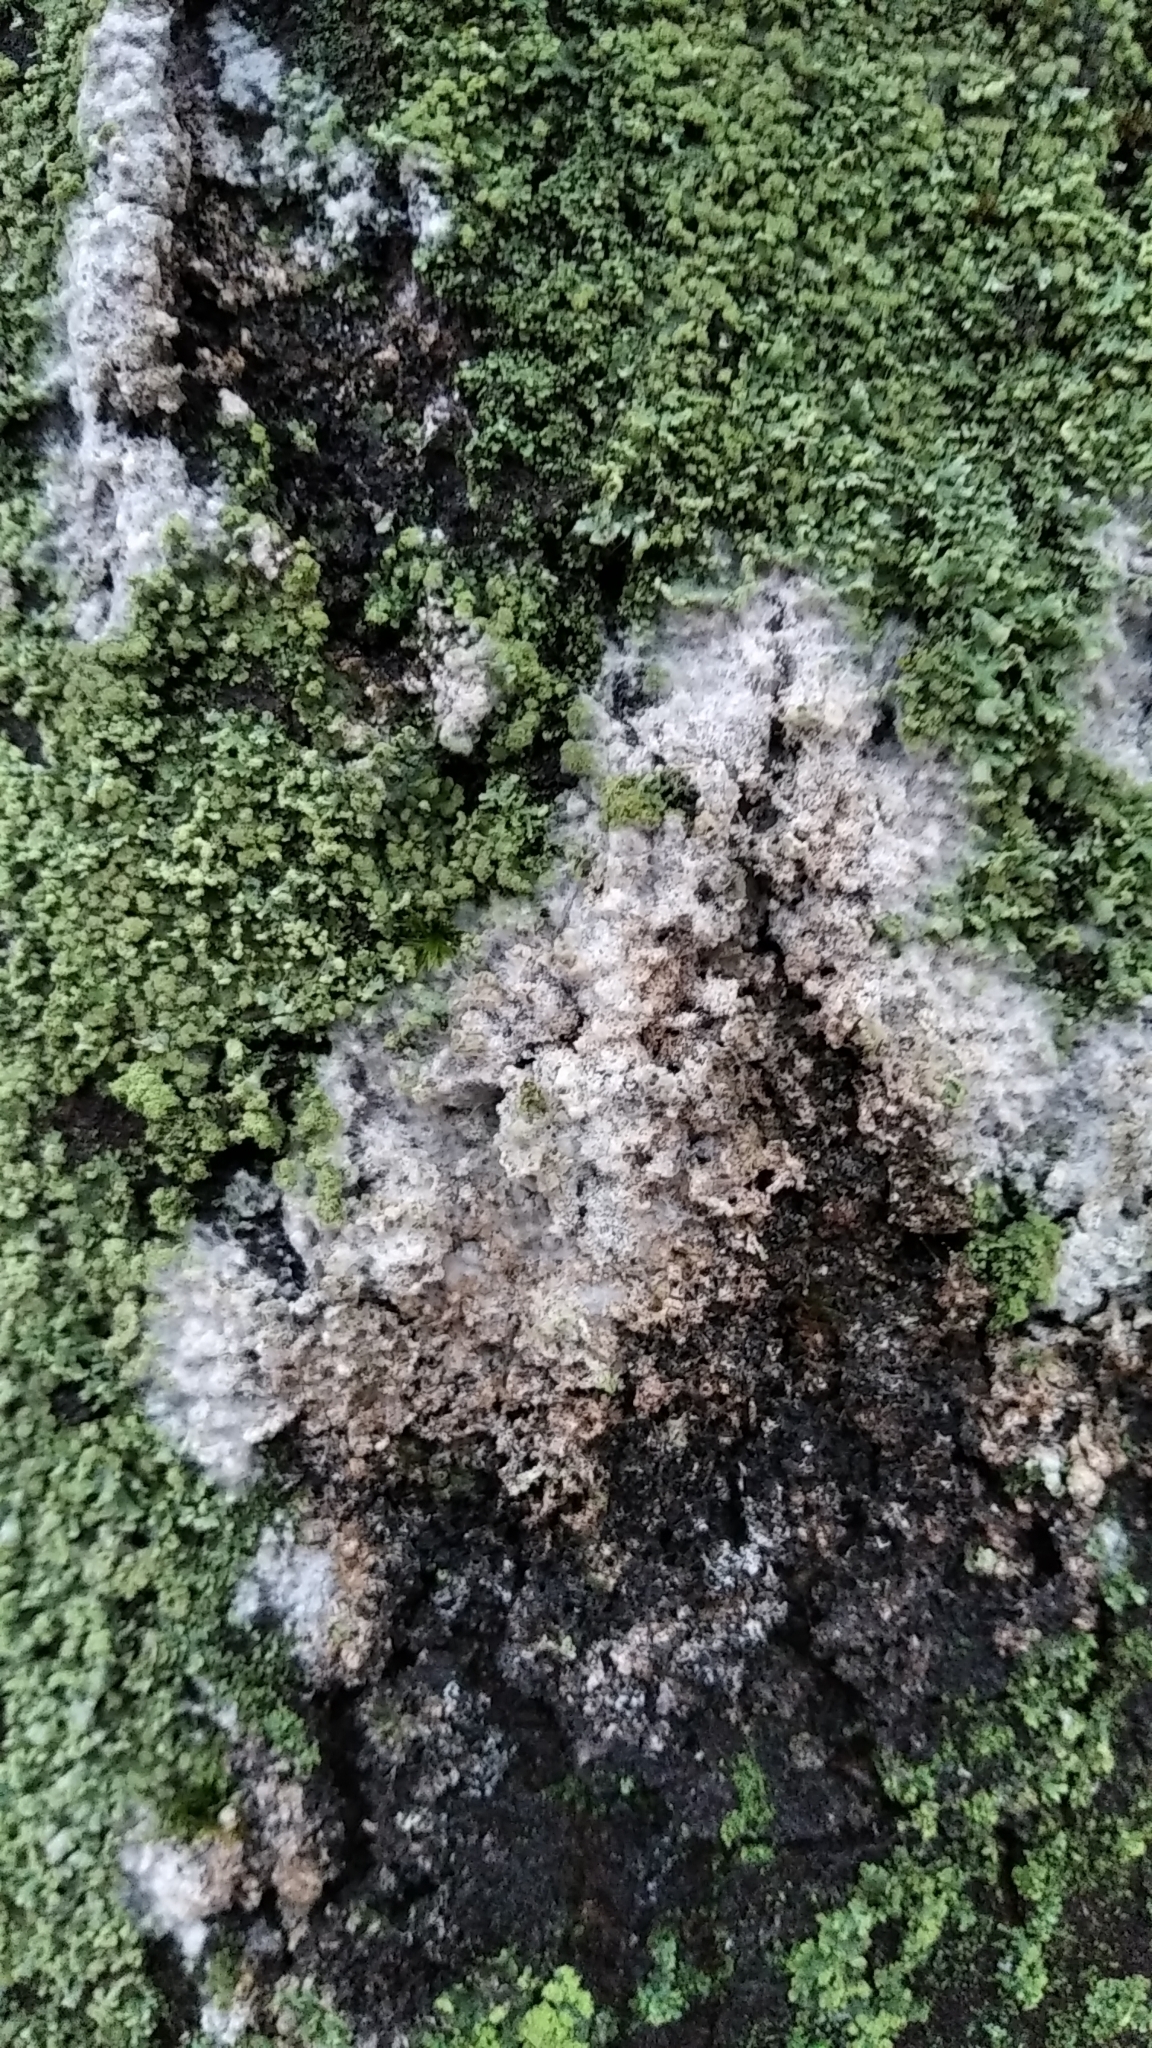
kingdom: Fungi
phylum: Basidiomycota
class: Agaricomycetes
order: Atheliales
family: Atheliaceae
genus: Athelia
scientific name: Athelia arachnoidea
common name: Candelabra duster
